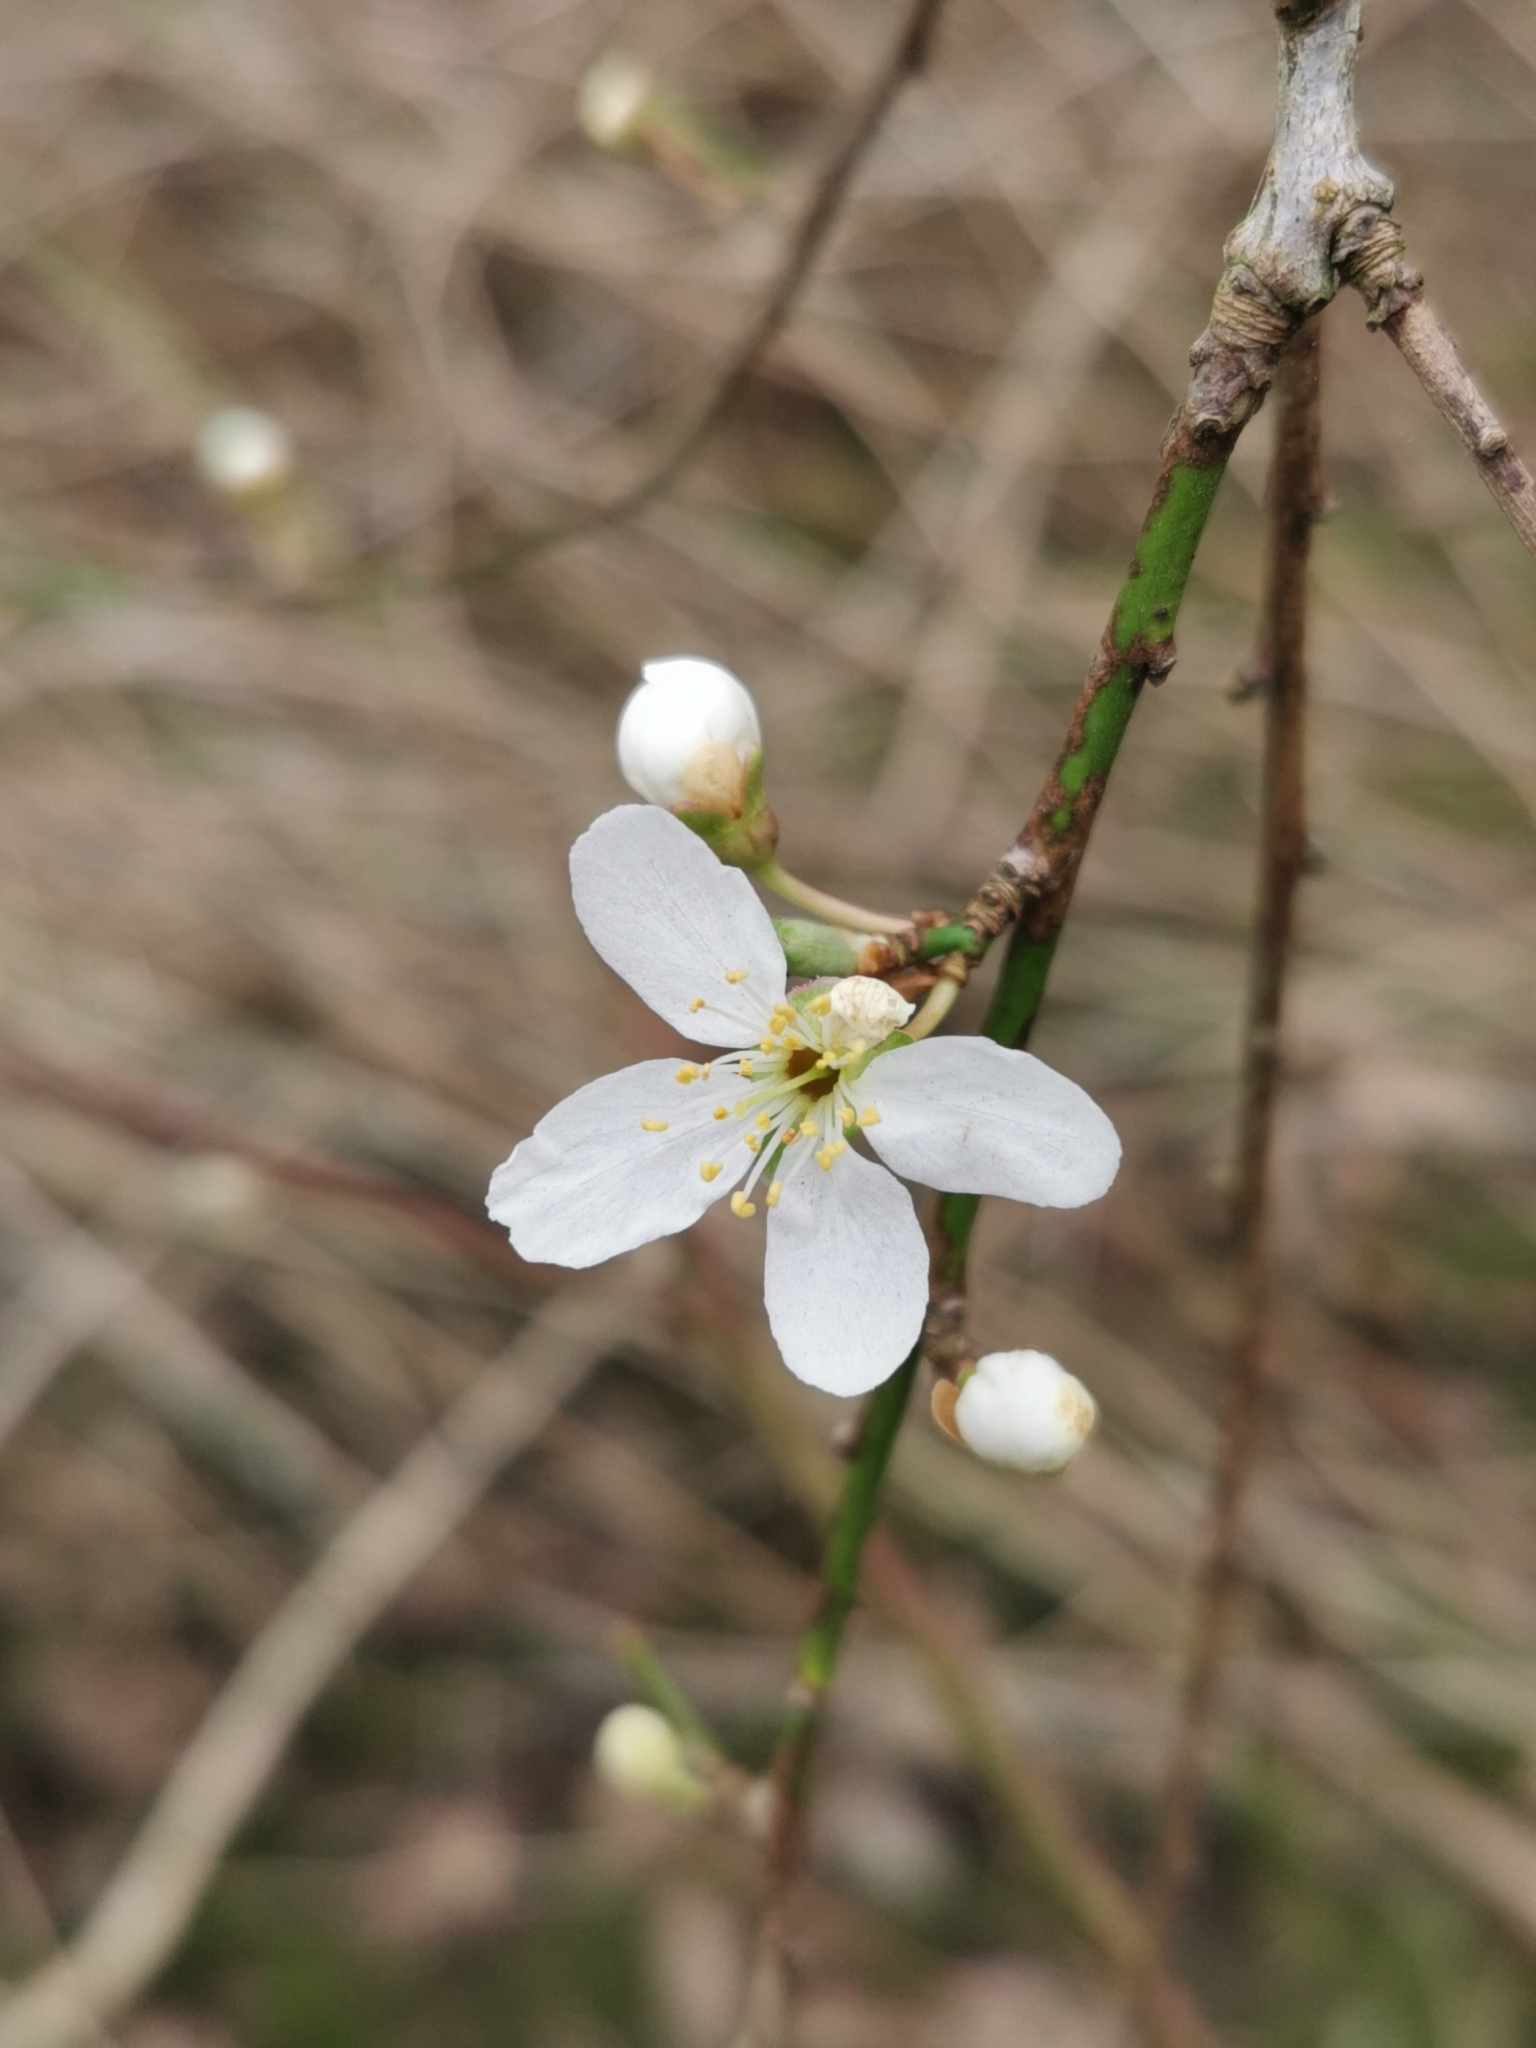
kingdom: Plantae
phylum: Tracheophyta
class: Magnoliopsida
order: Rosales
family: Rosaceae
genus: Prunus
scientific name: Prunus cerasifera
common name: Cherry plum
